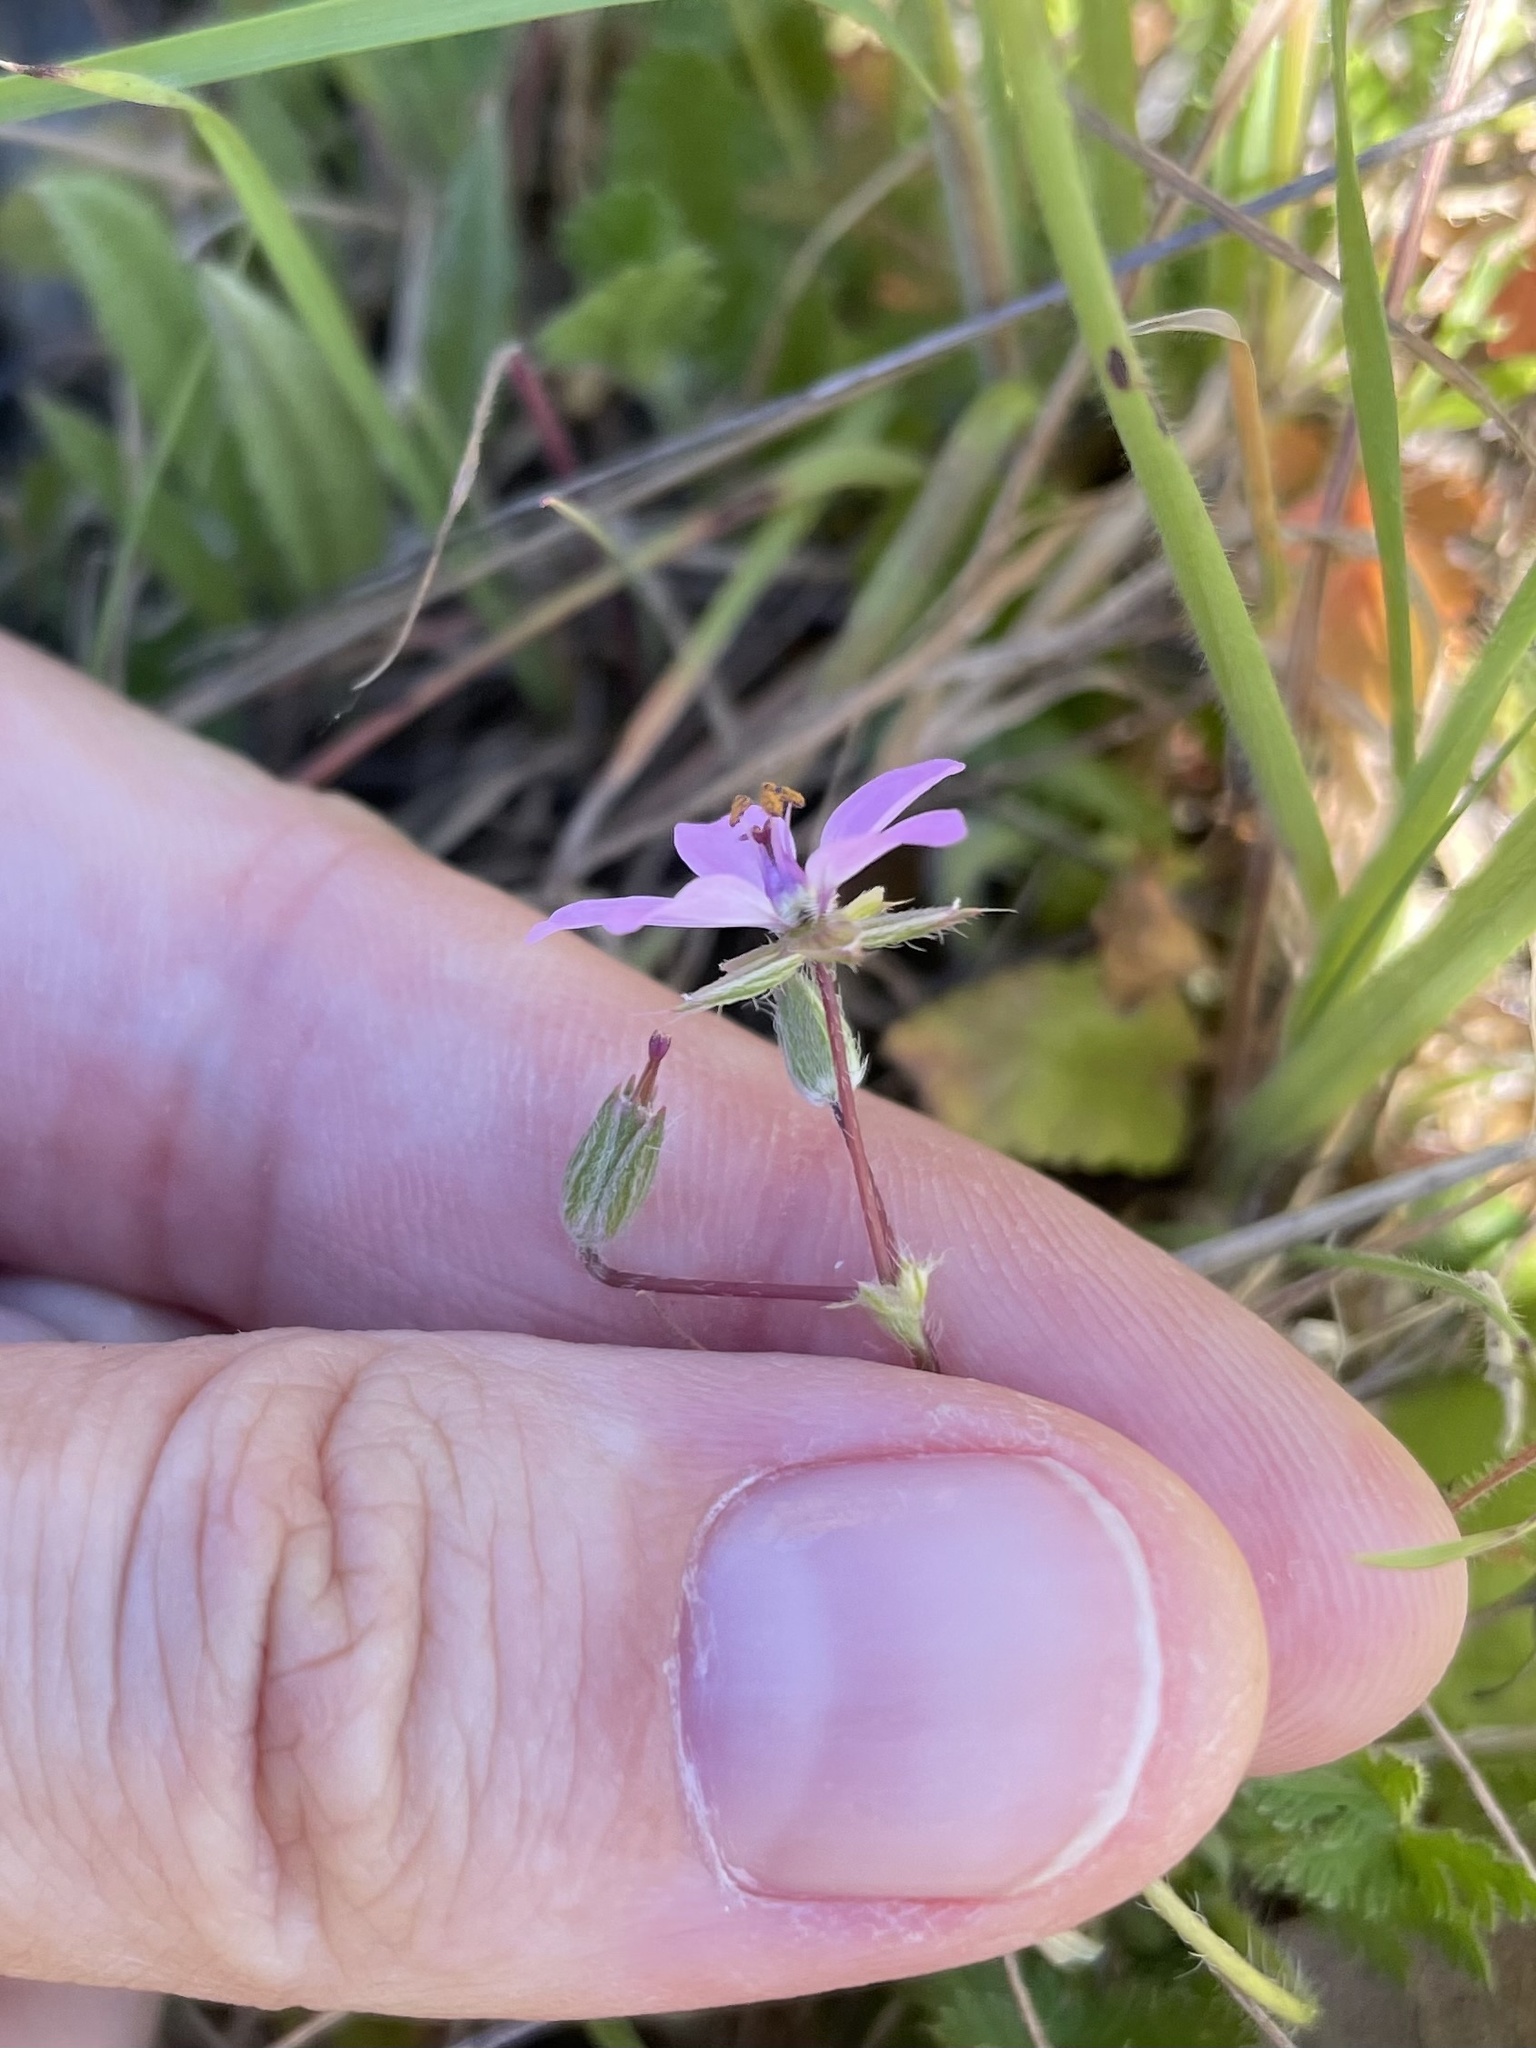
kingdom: Plantae
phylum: Tracheophyta
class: Magnoliopsida
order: Geraniales
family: Geraniaceae
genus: Erodium
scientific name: Erodium cicutarium
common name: Common stork's-bill
